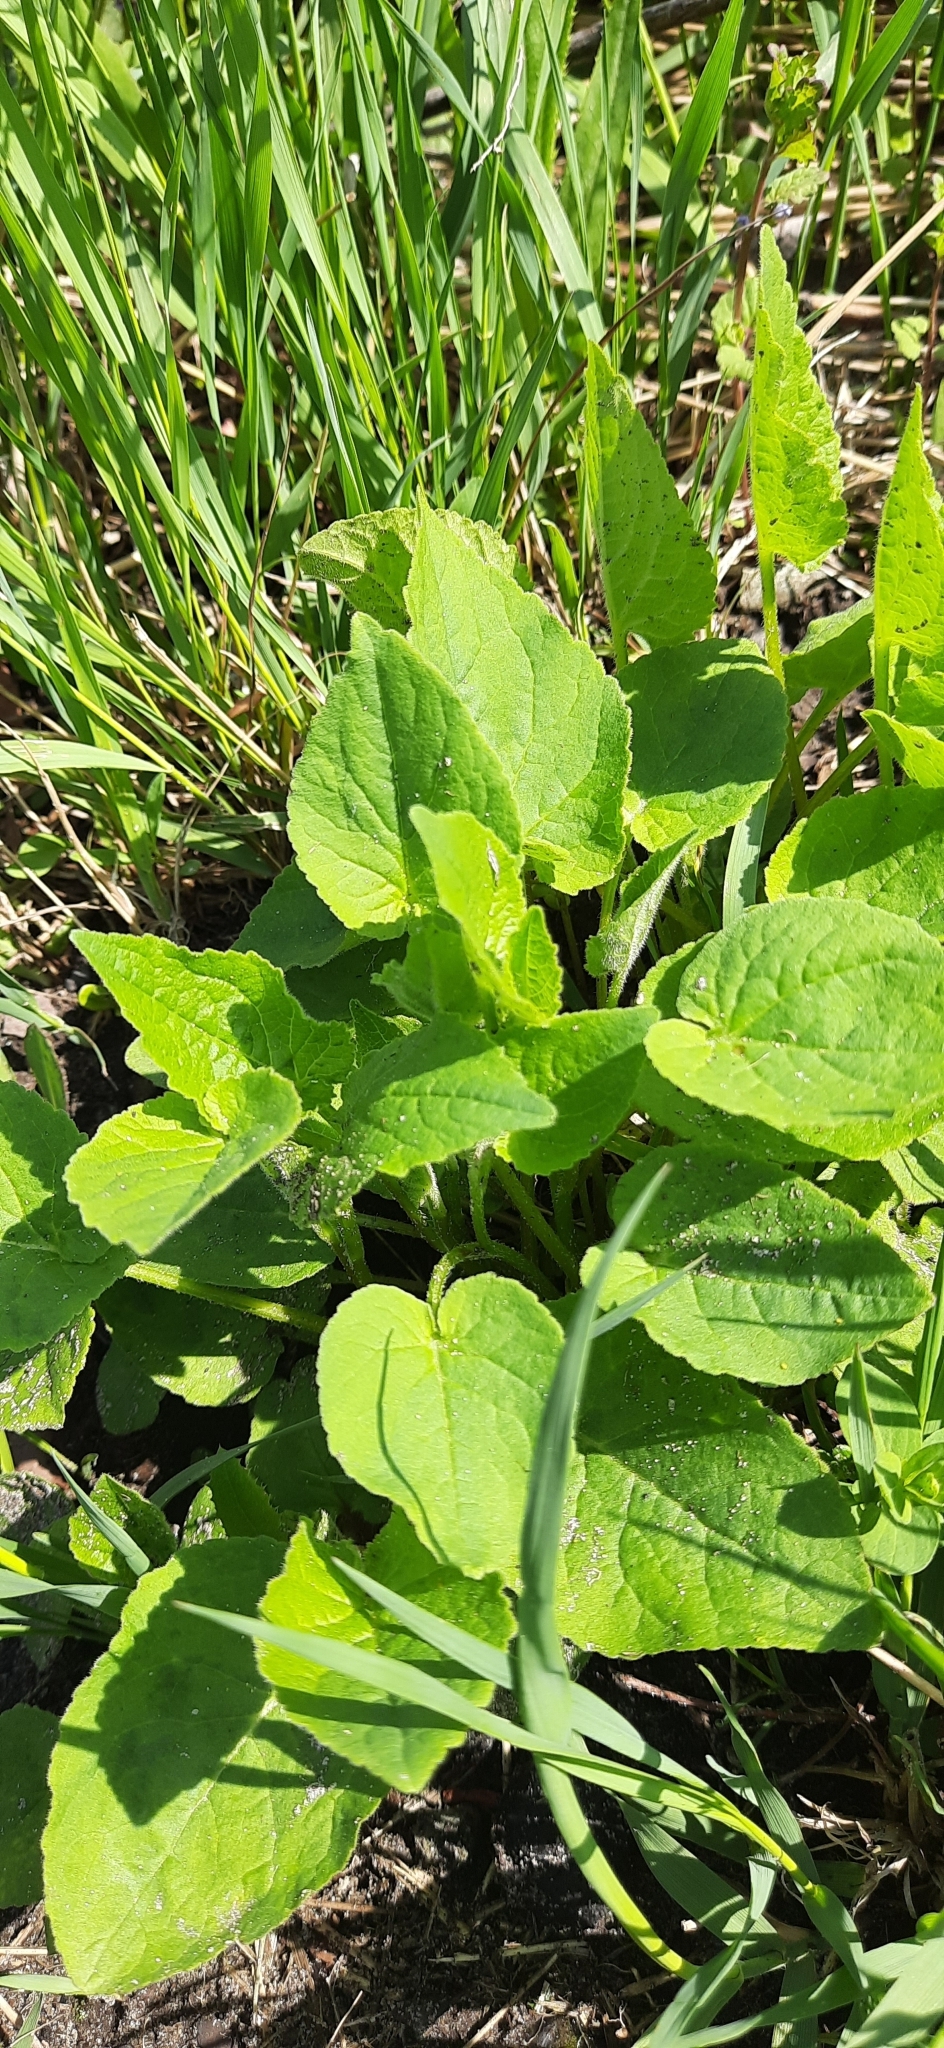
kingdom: Plantae
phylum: Tracheophyta
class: Magnoliopsida
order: Asterales
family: Campanulaceae
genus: Campanula
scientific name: Campanula rapunculoides
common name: Creeping bellflower
